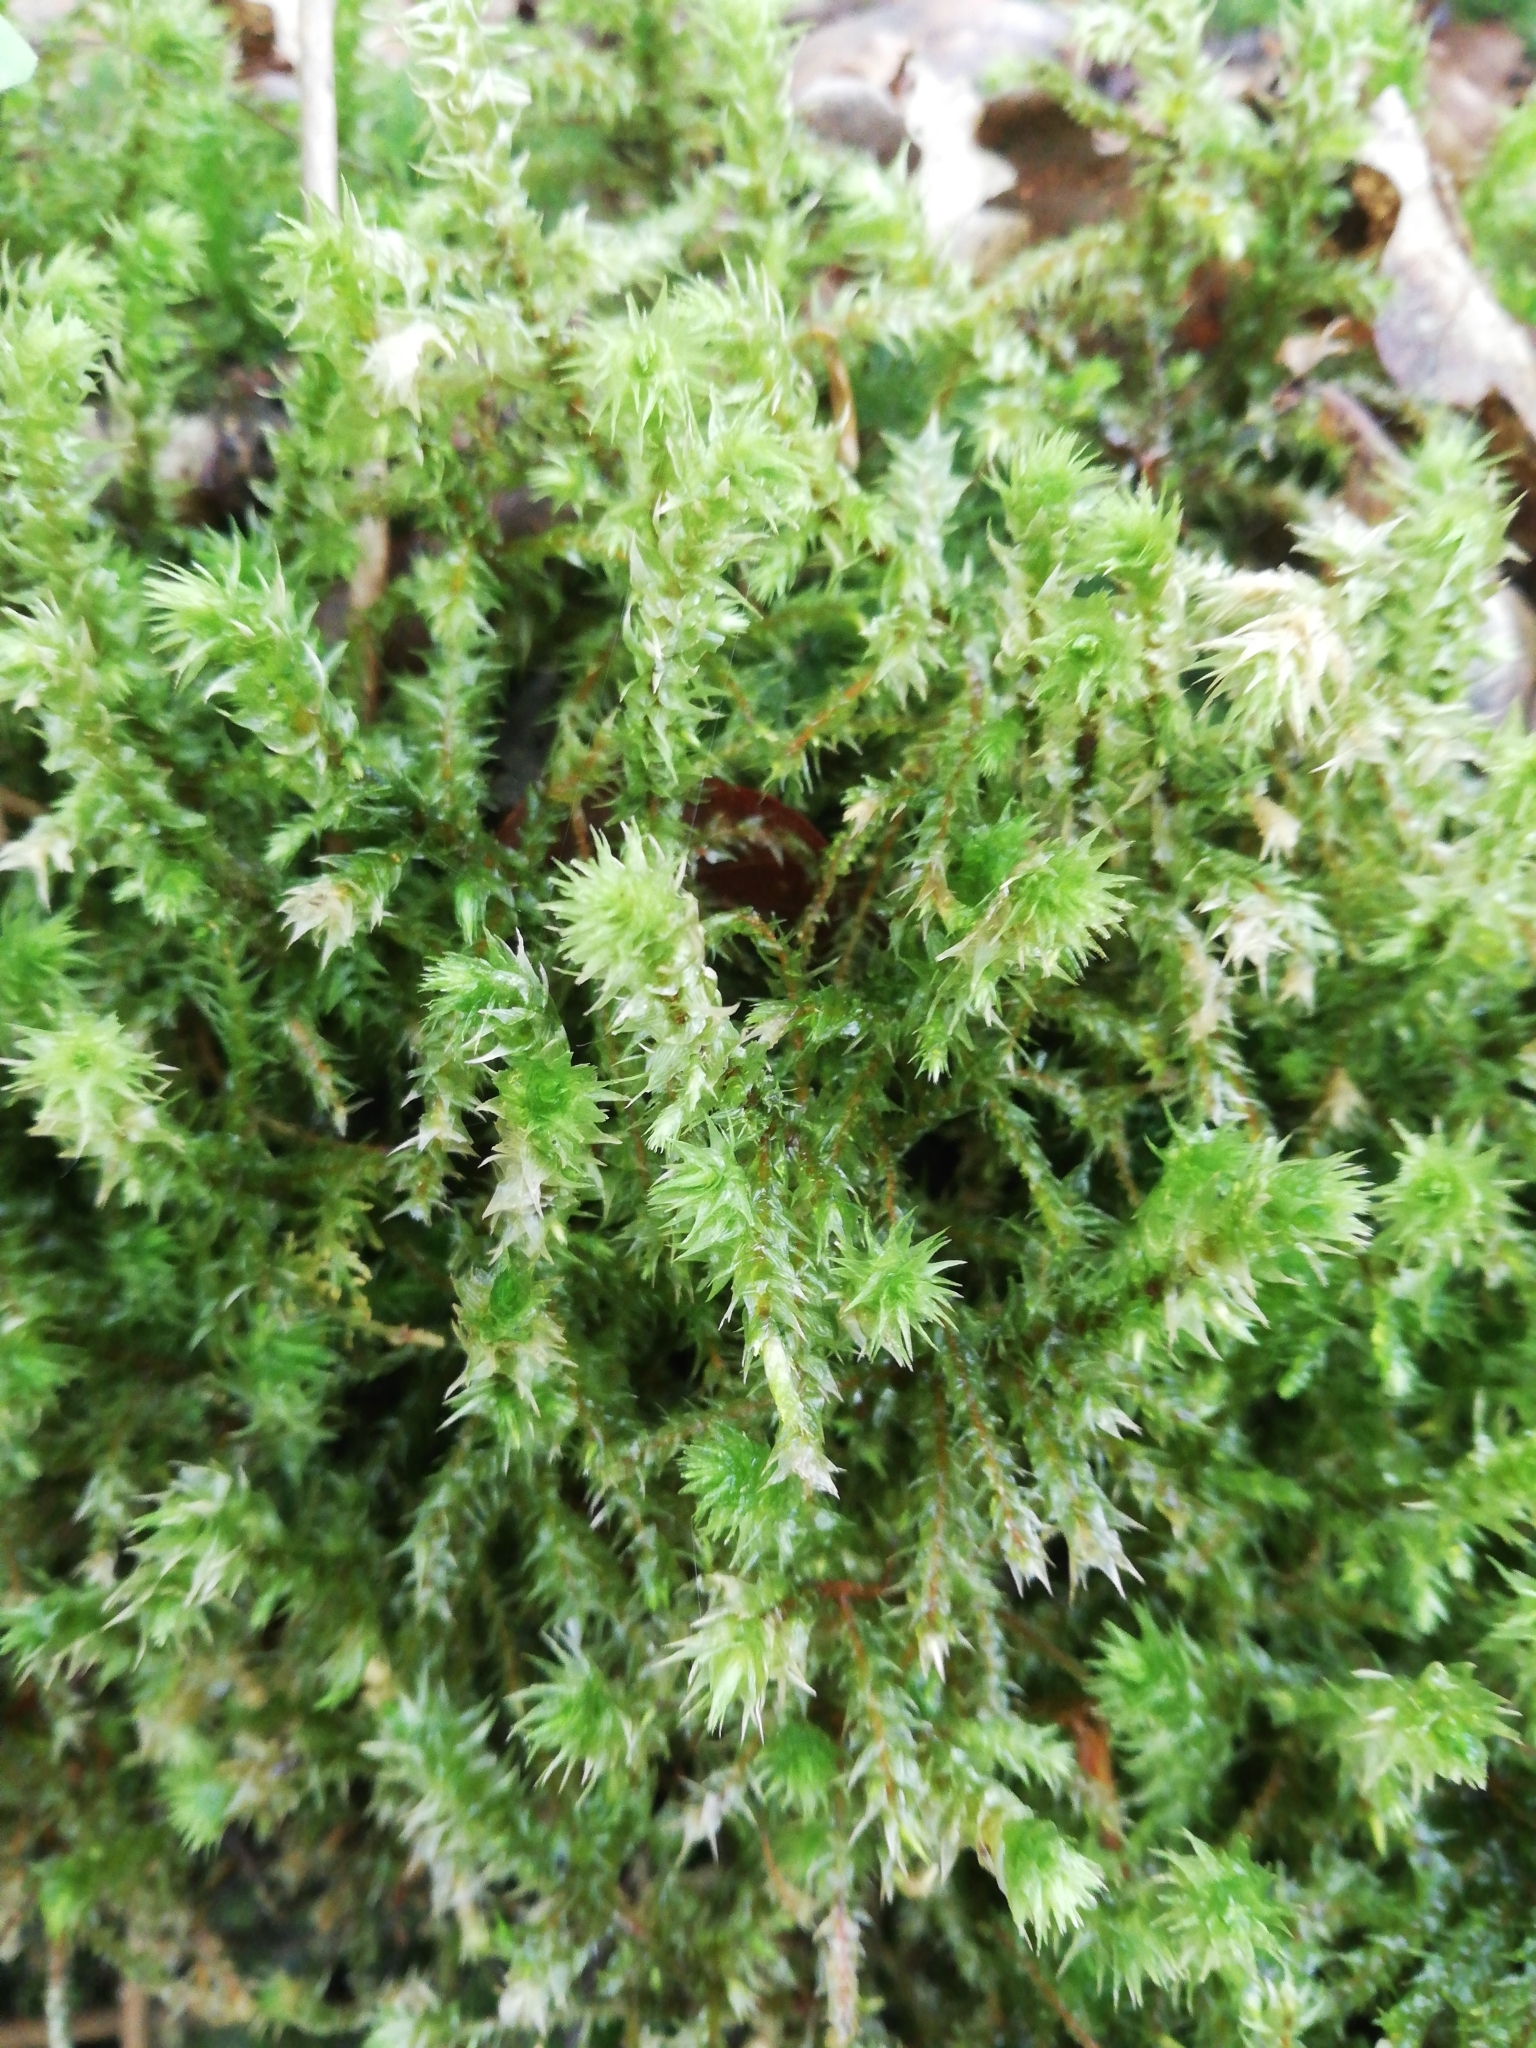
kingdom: Plantae
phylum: Bryophyta
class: Bryopsida
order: Hypnales
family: Hylocomiaceae
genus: Hylocomiadelphus
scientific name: Hylocomiadelphus triquetrus
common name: Rough goose neck moss
